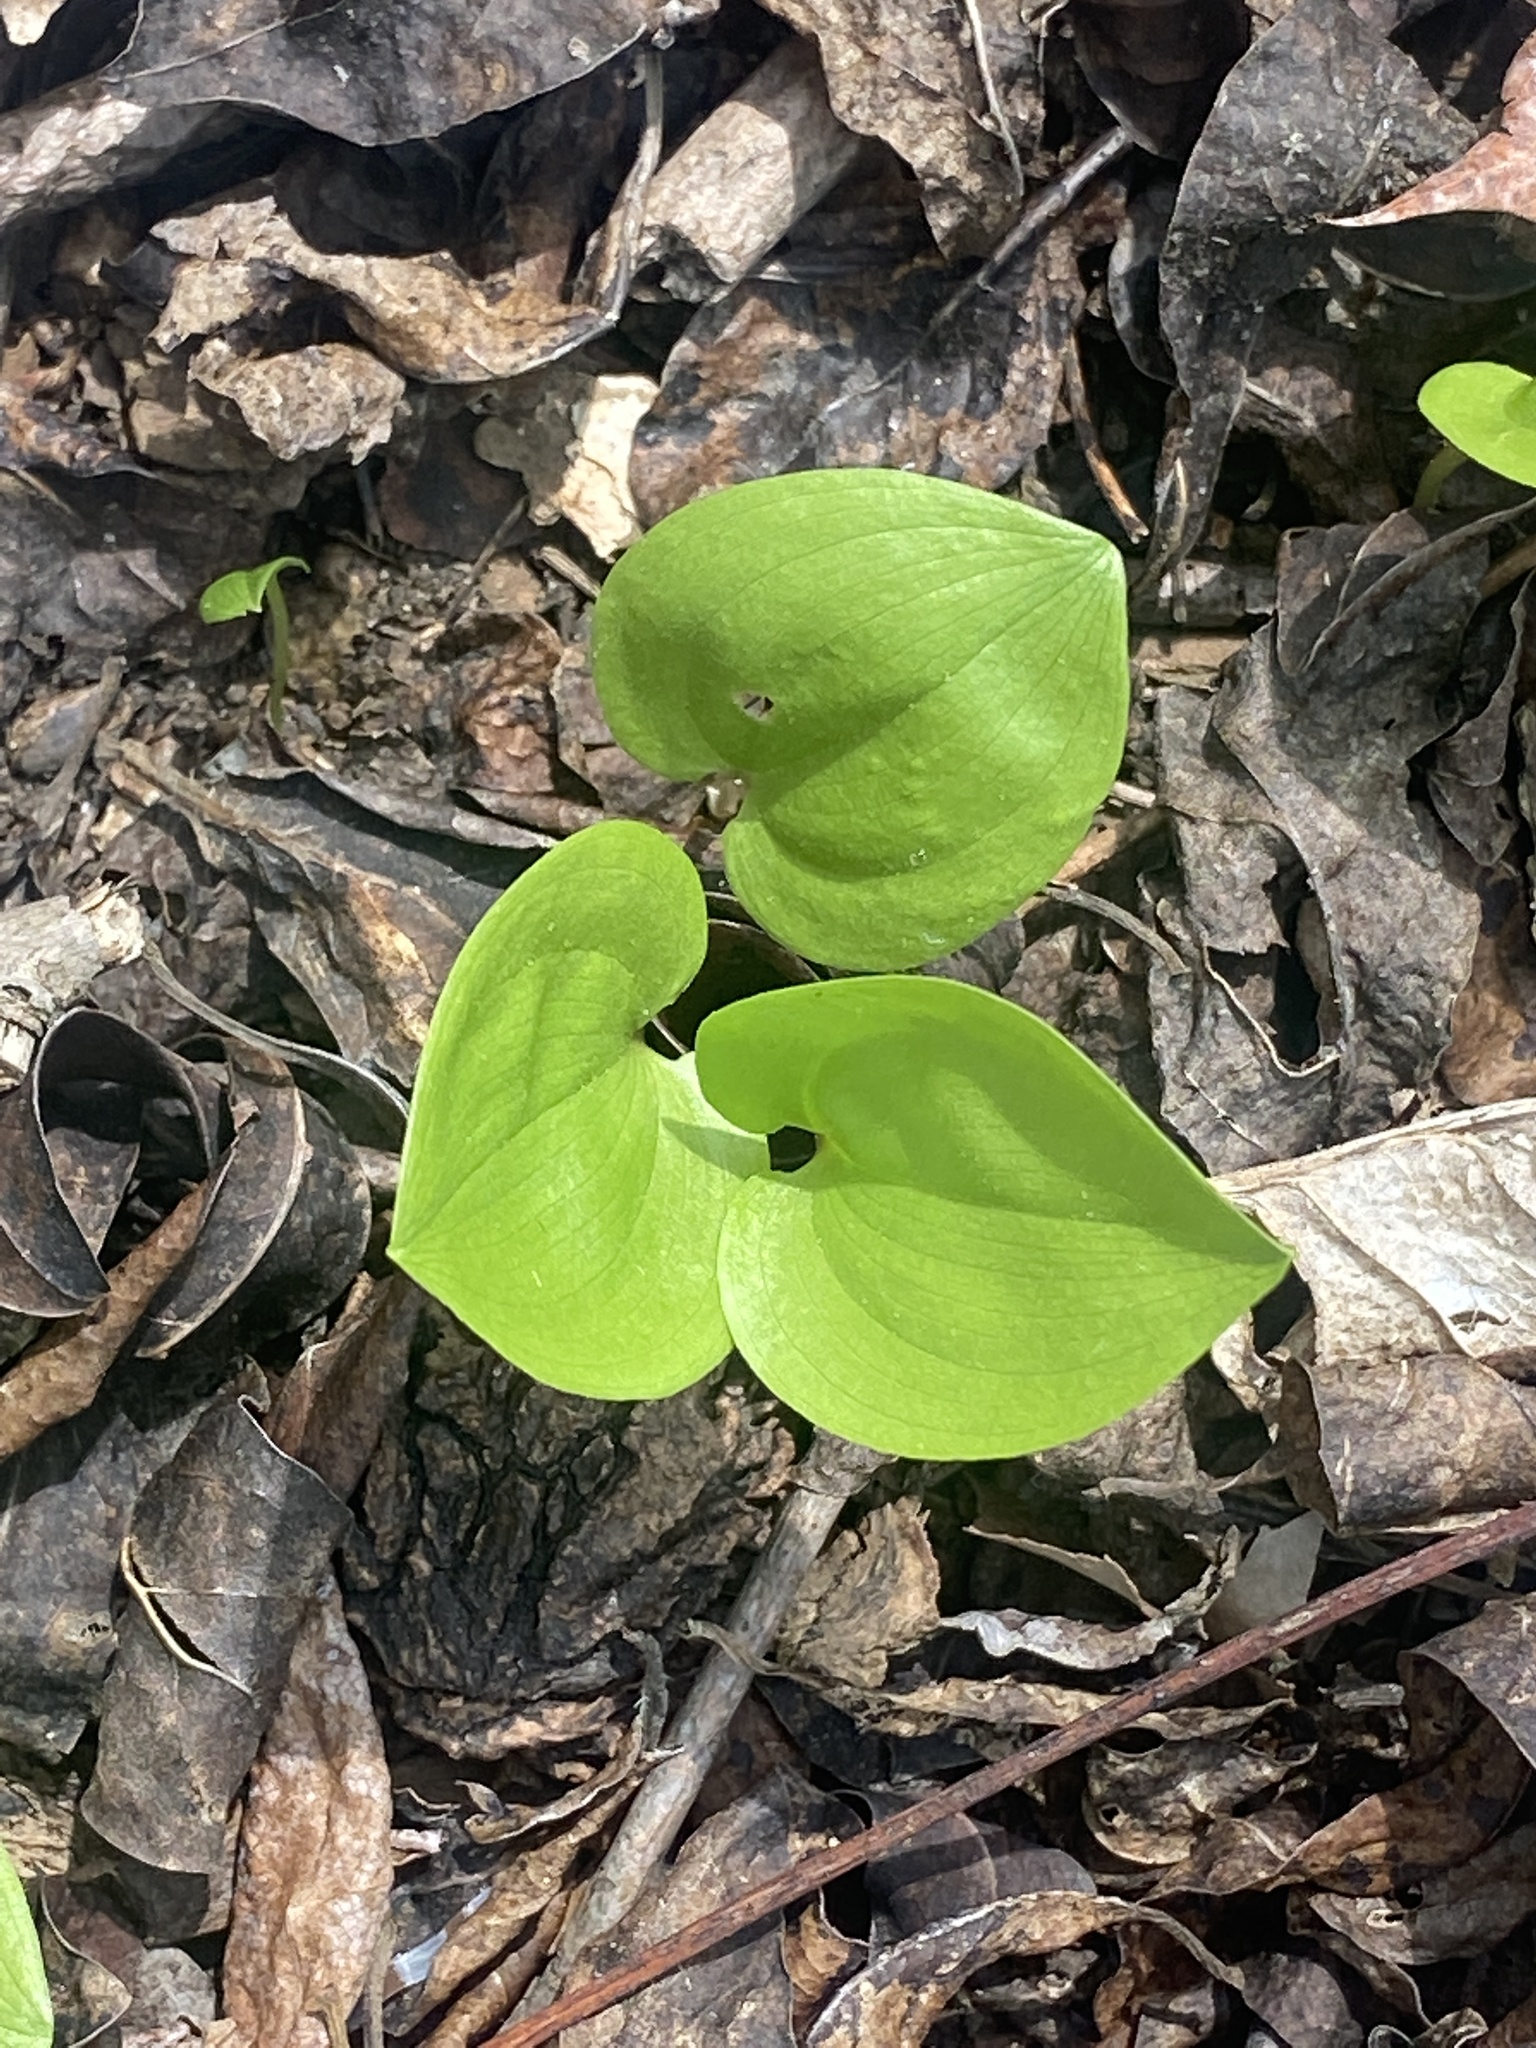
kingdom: Plantae
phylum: Tracheophyta
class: Liliopsida
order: Asparagales
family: Asparagaceae
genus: Maianthemum
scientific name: Maianthemum canadense
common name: False lily-of-the-valley
